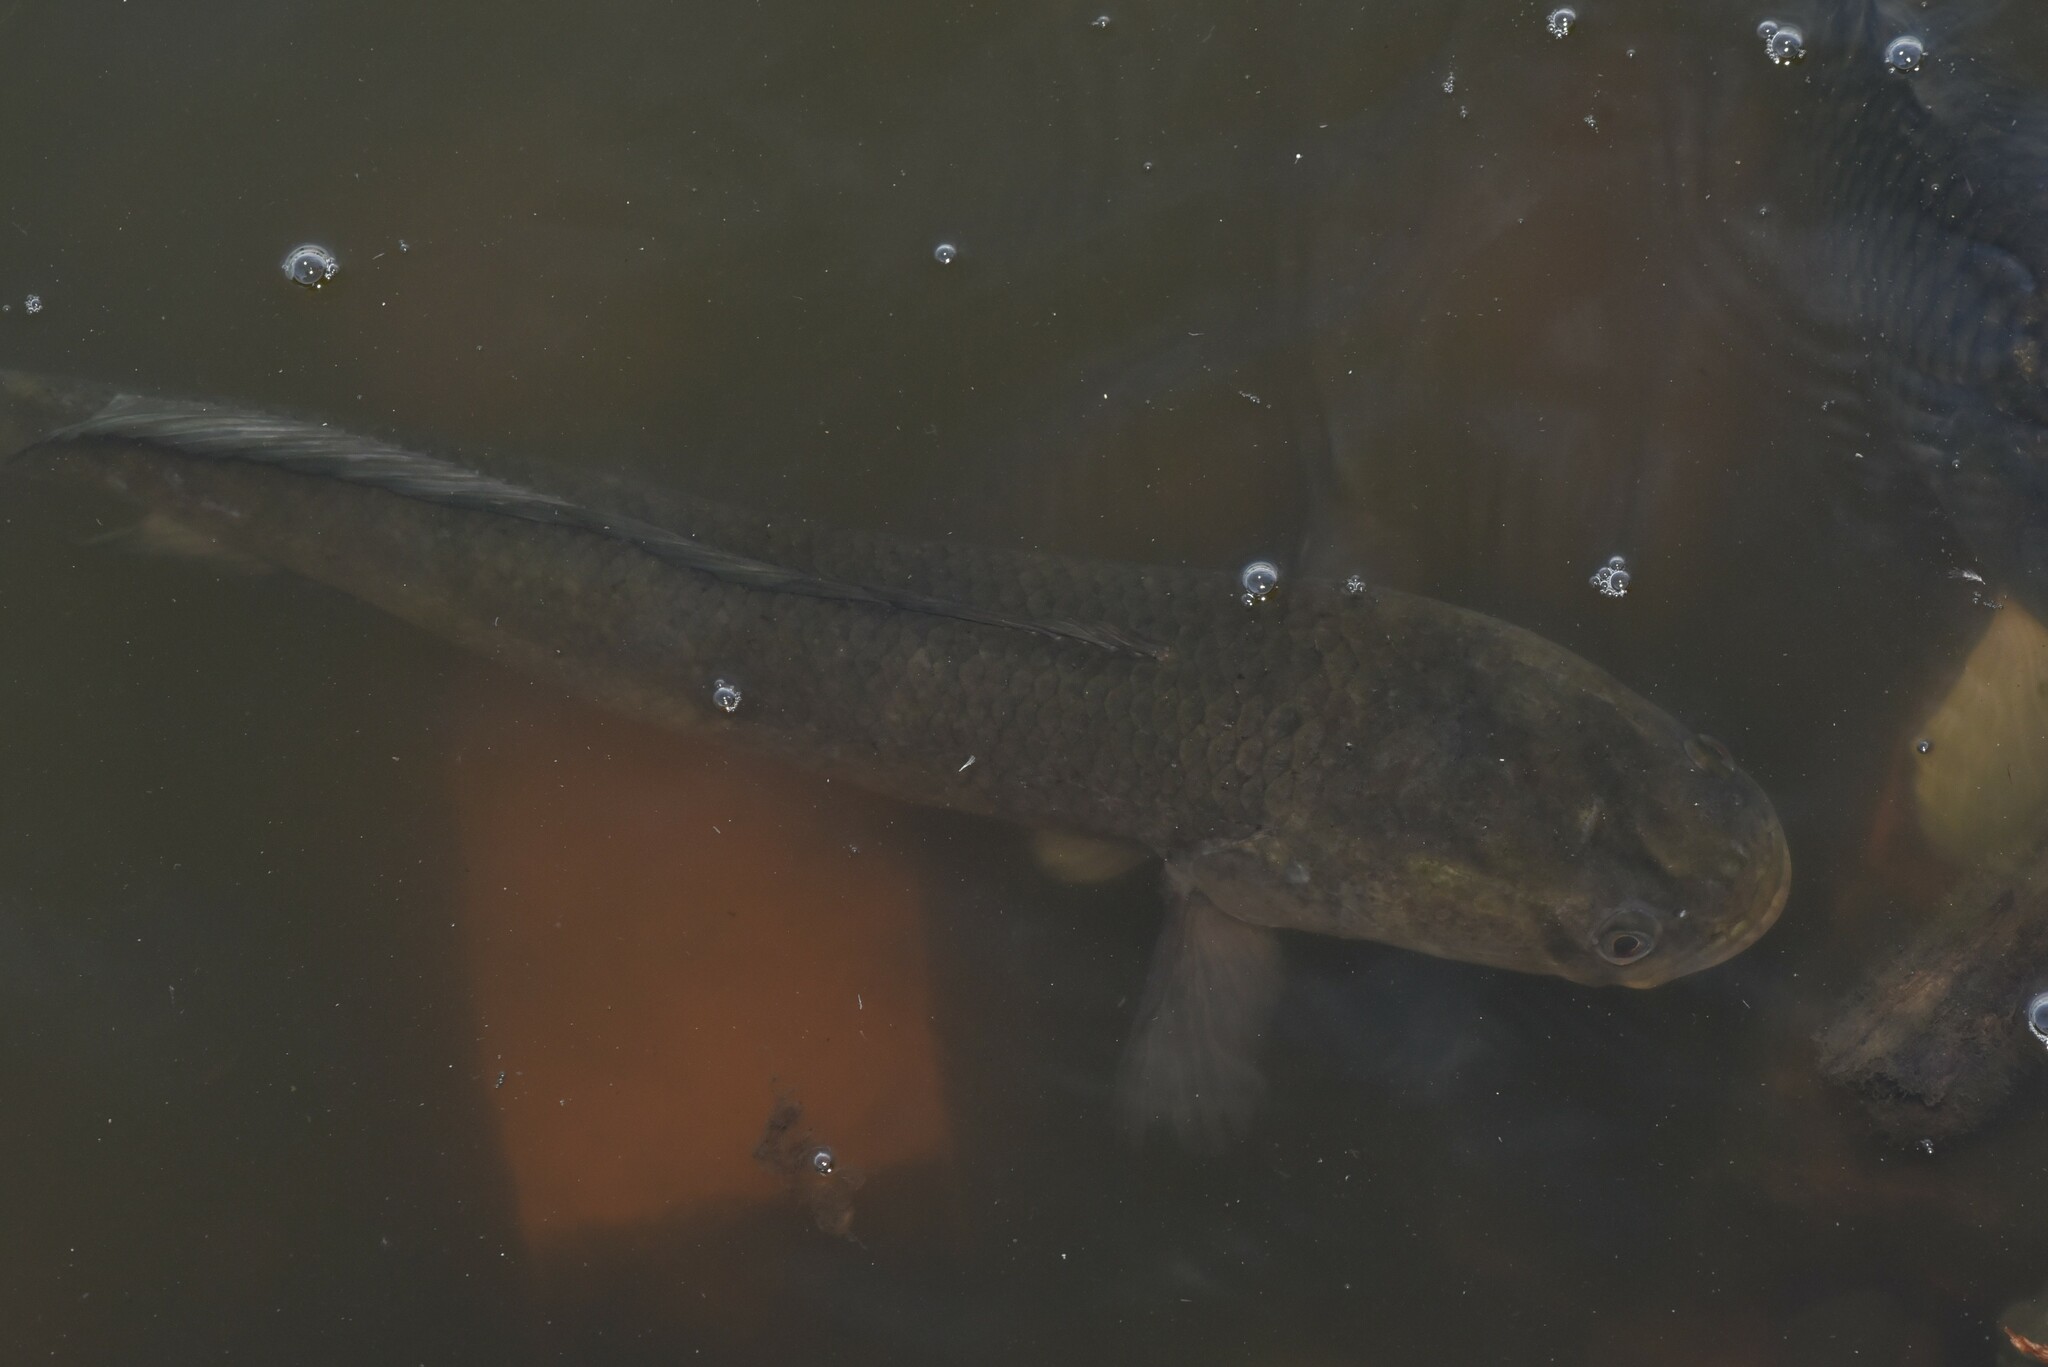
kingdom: Animalia
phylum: Chordata
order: Perciformes
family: Channidae
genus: Channa
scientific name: Channa striata
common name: Striped snakehead
